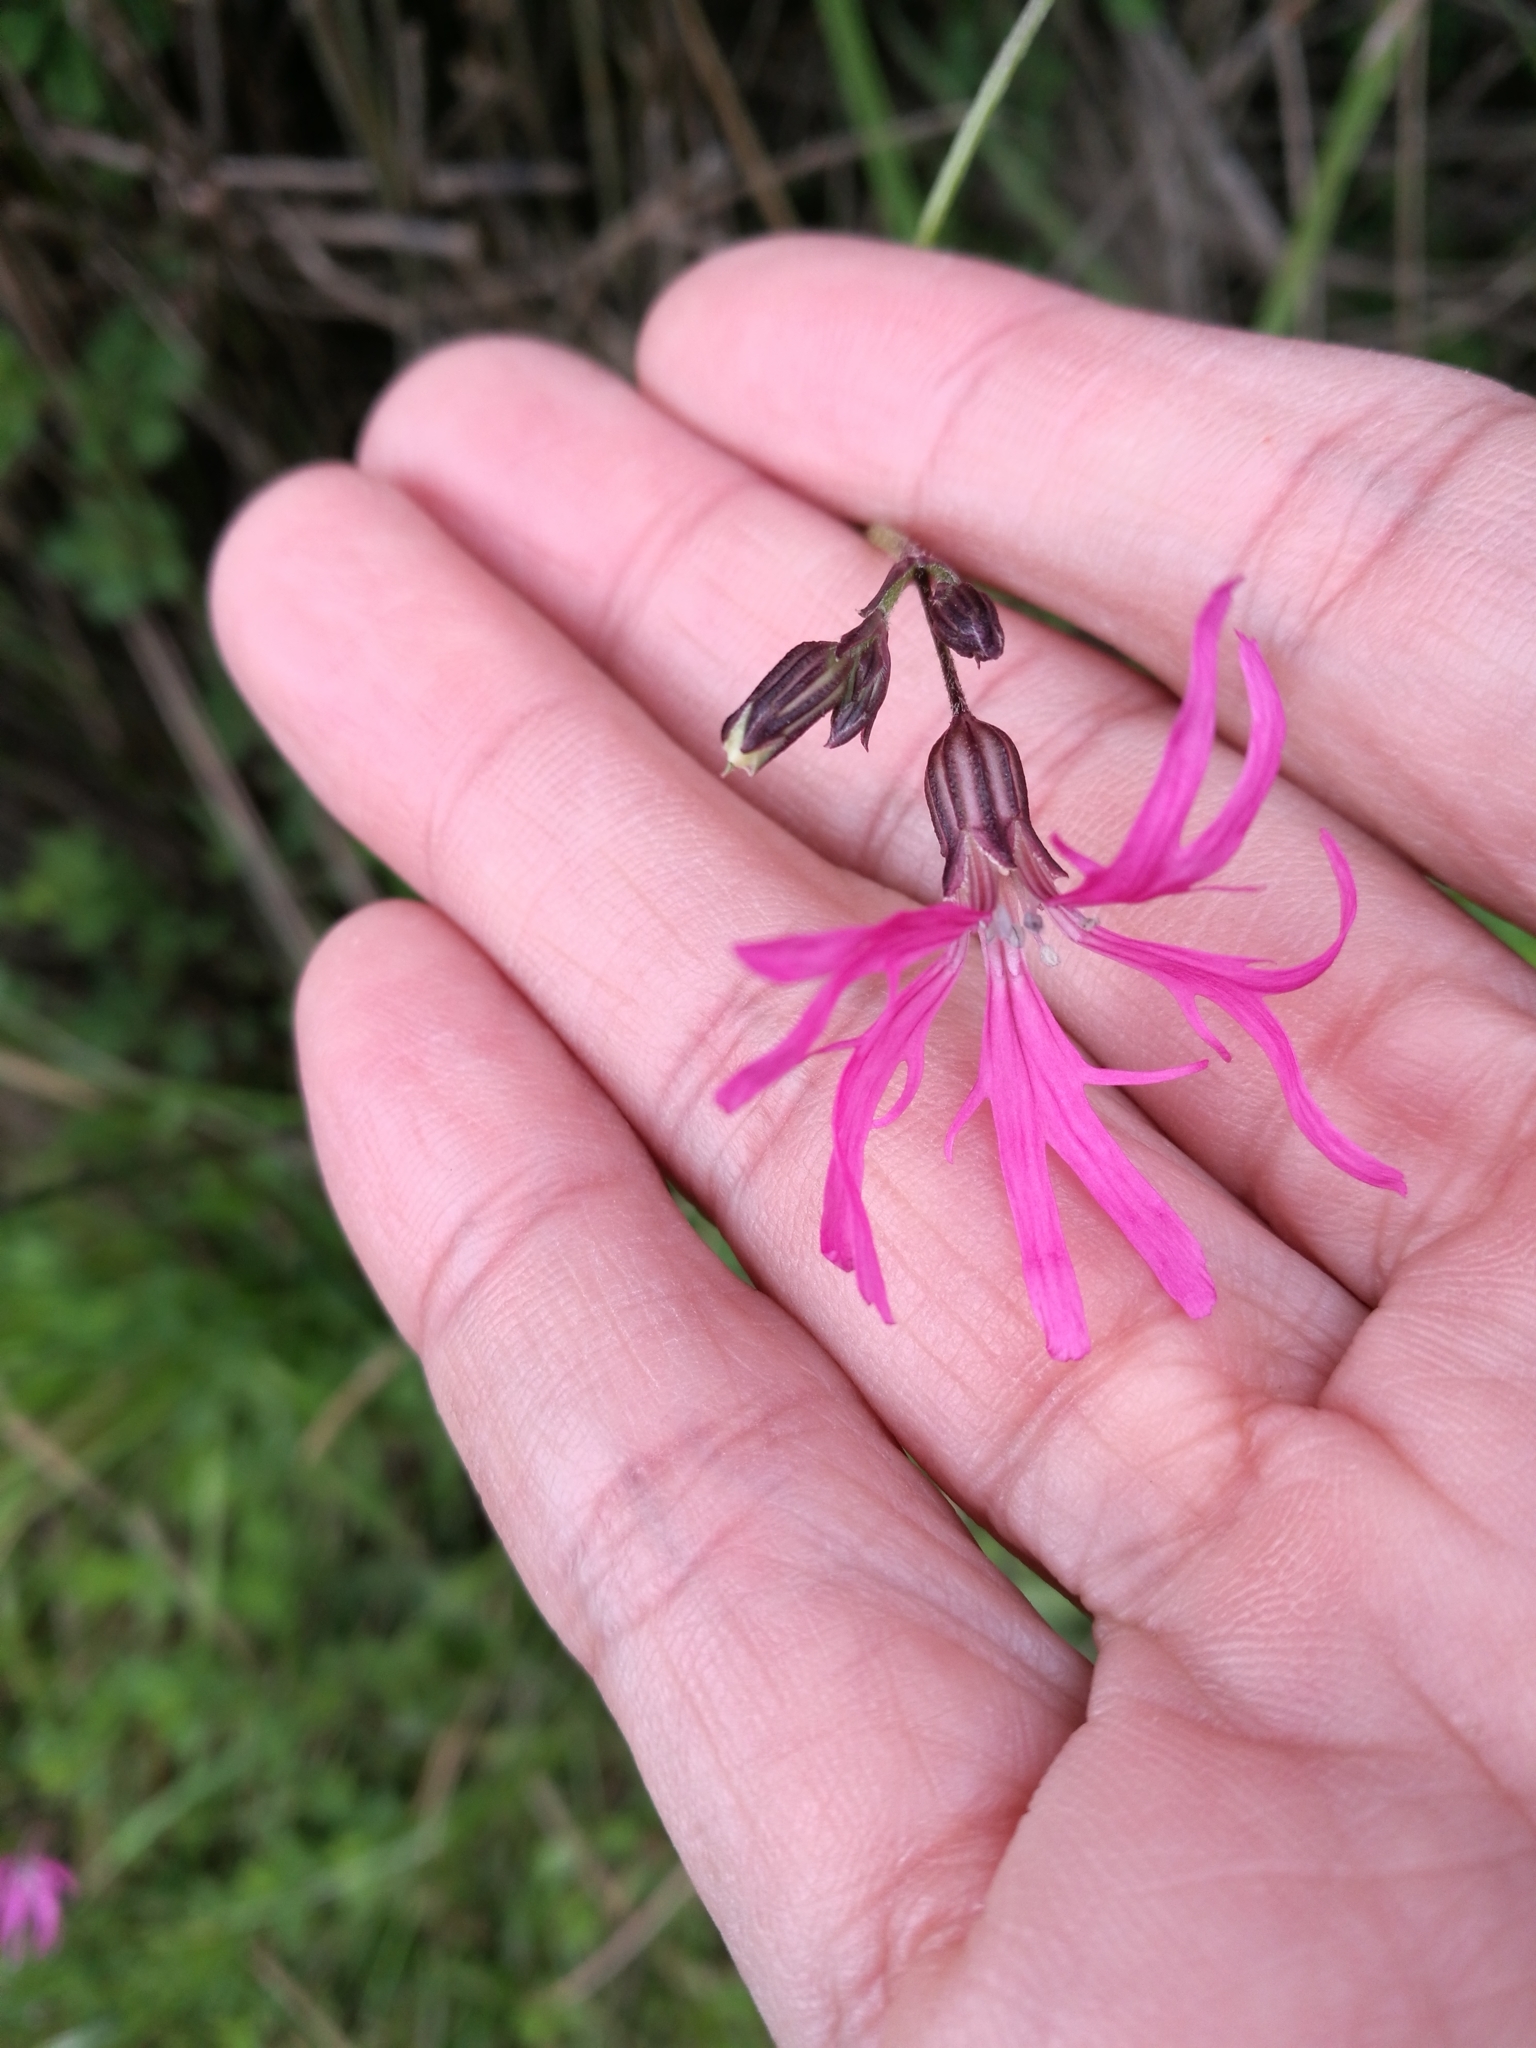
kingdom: Plantae
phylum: Tracheophyta
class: Magnoliopsida
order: Caryophyllales
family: Caryophyllaceae
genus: Silene
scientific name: Silene flos-cuculi
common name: Ragged-robin
